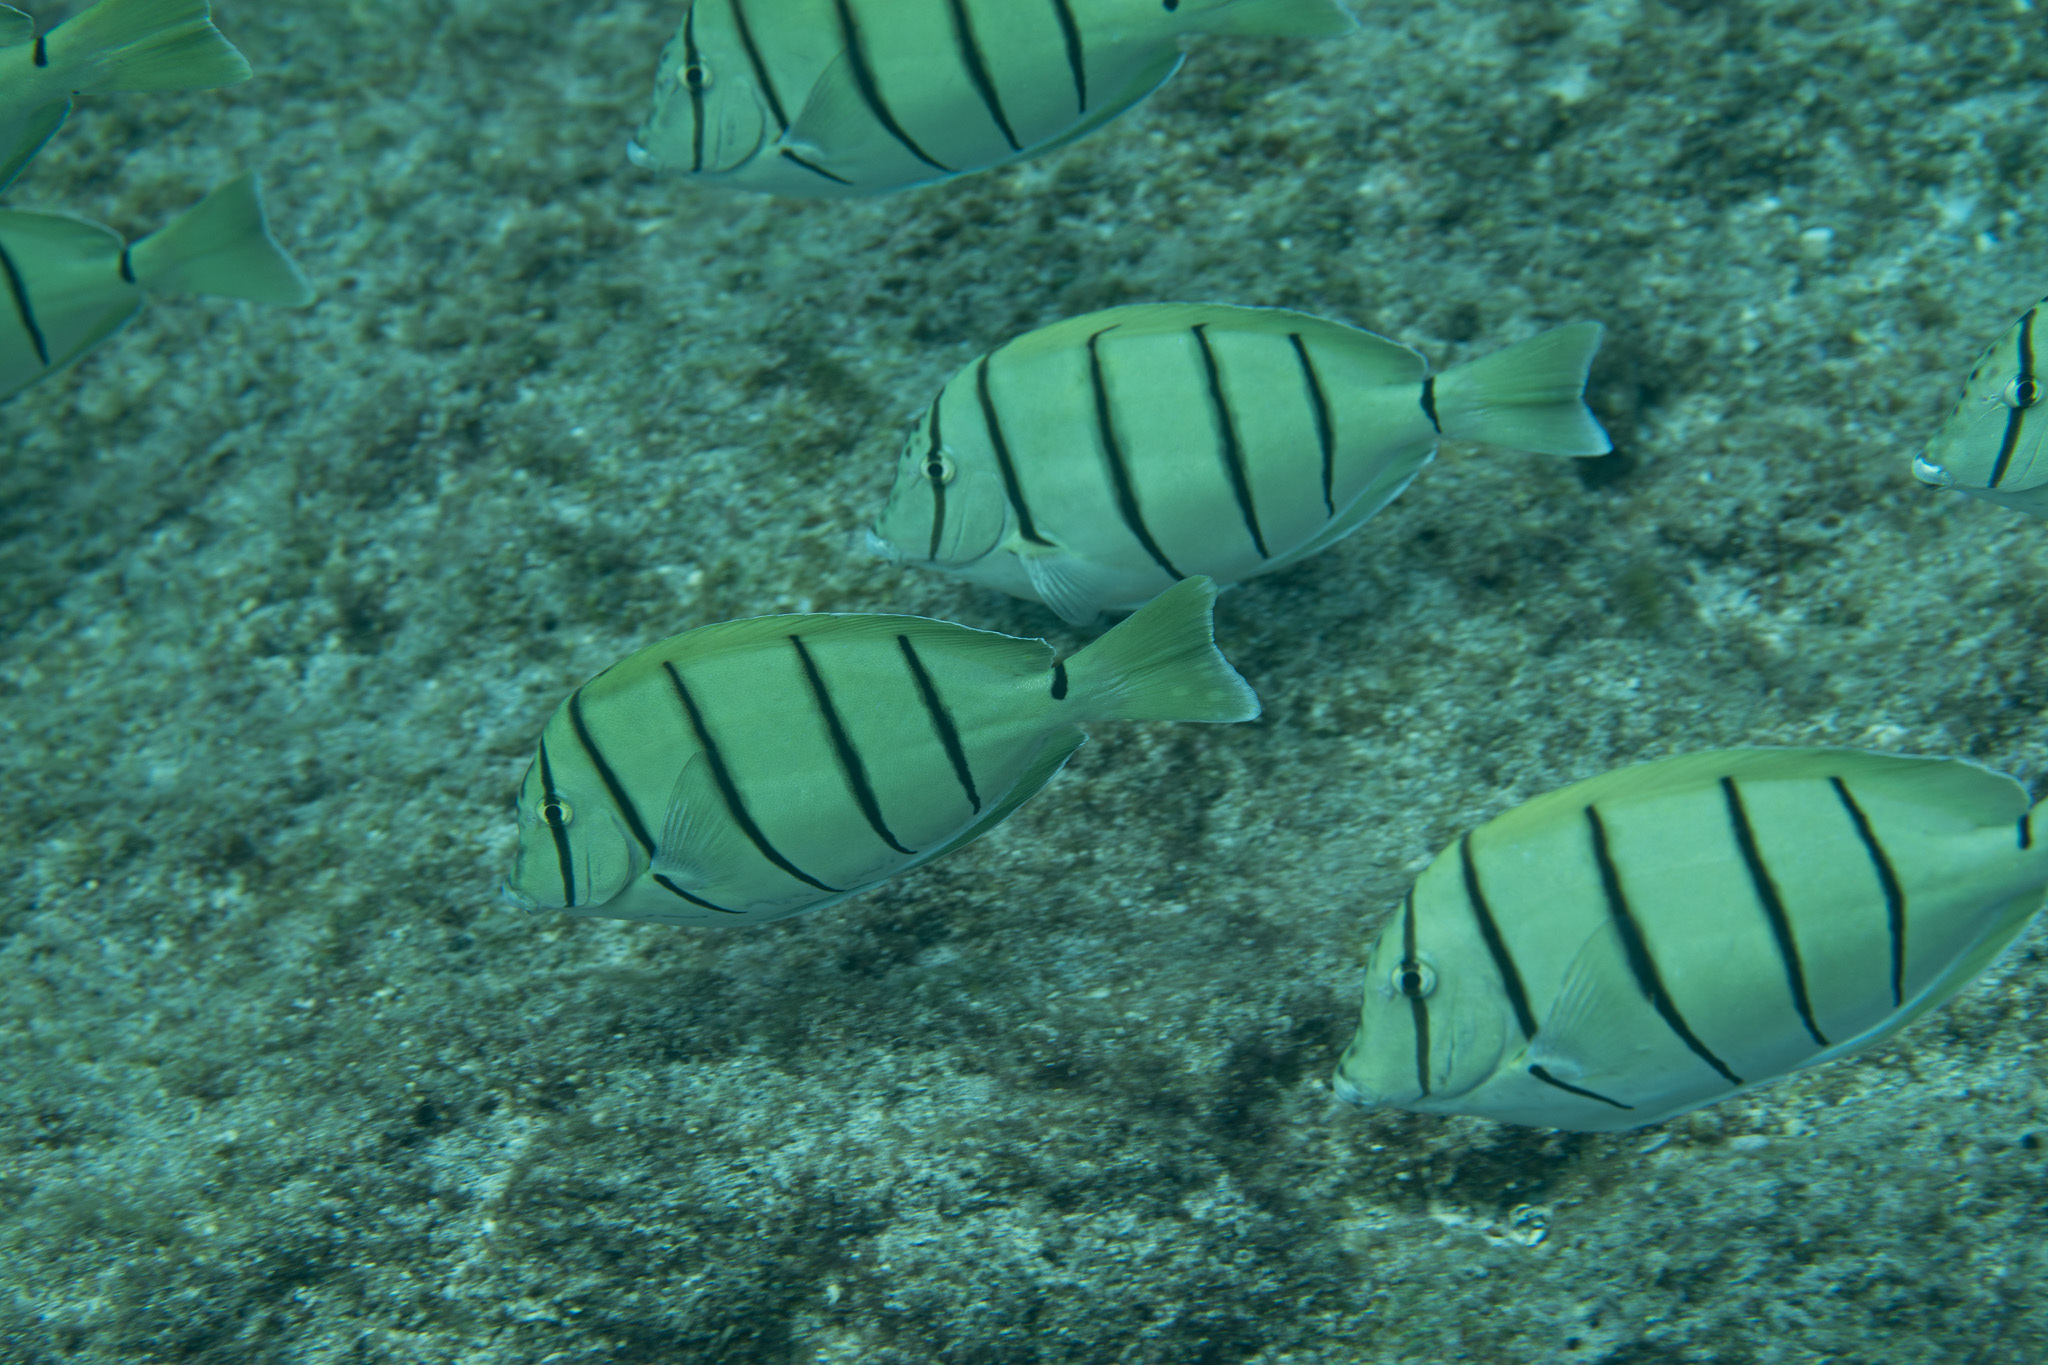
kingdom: Animalia
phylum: Chordata
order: Perciformes
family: Acanthuridae
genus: Acanthurus
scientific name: Acanthurus triostegus
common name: Convict surgeonfish
